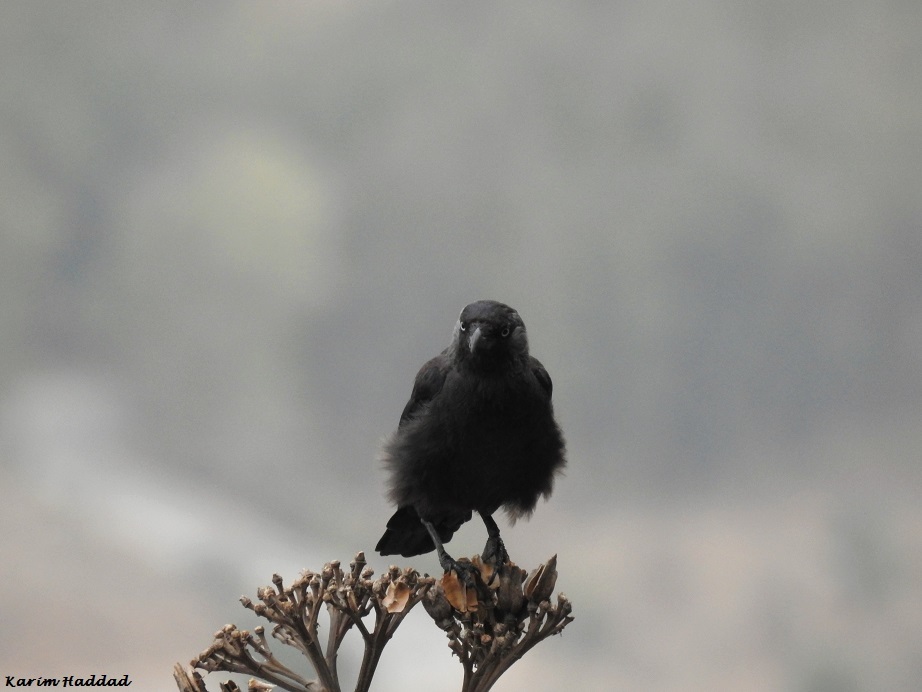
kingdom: Animalia
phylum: Chordata
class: Aves
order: Passeriformes
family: Corvidae
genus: Coloeus
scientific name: Coloeus monedula
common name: Western jackdaw
